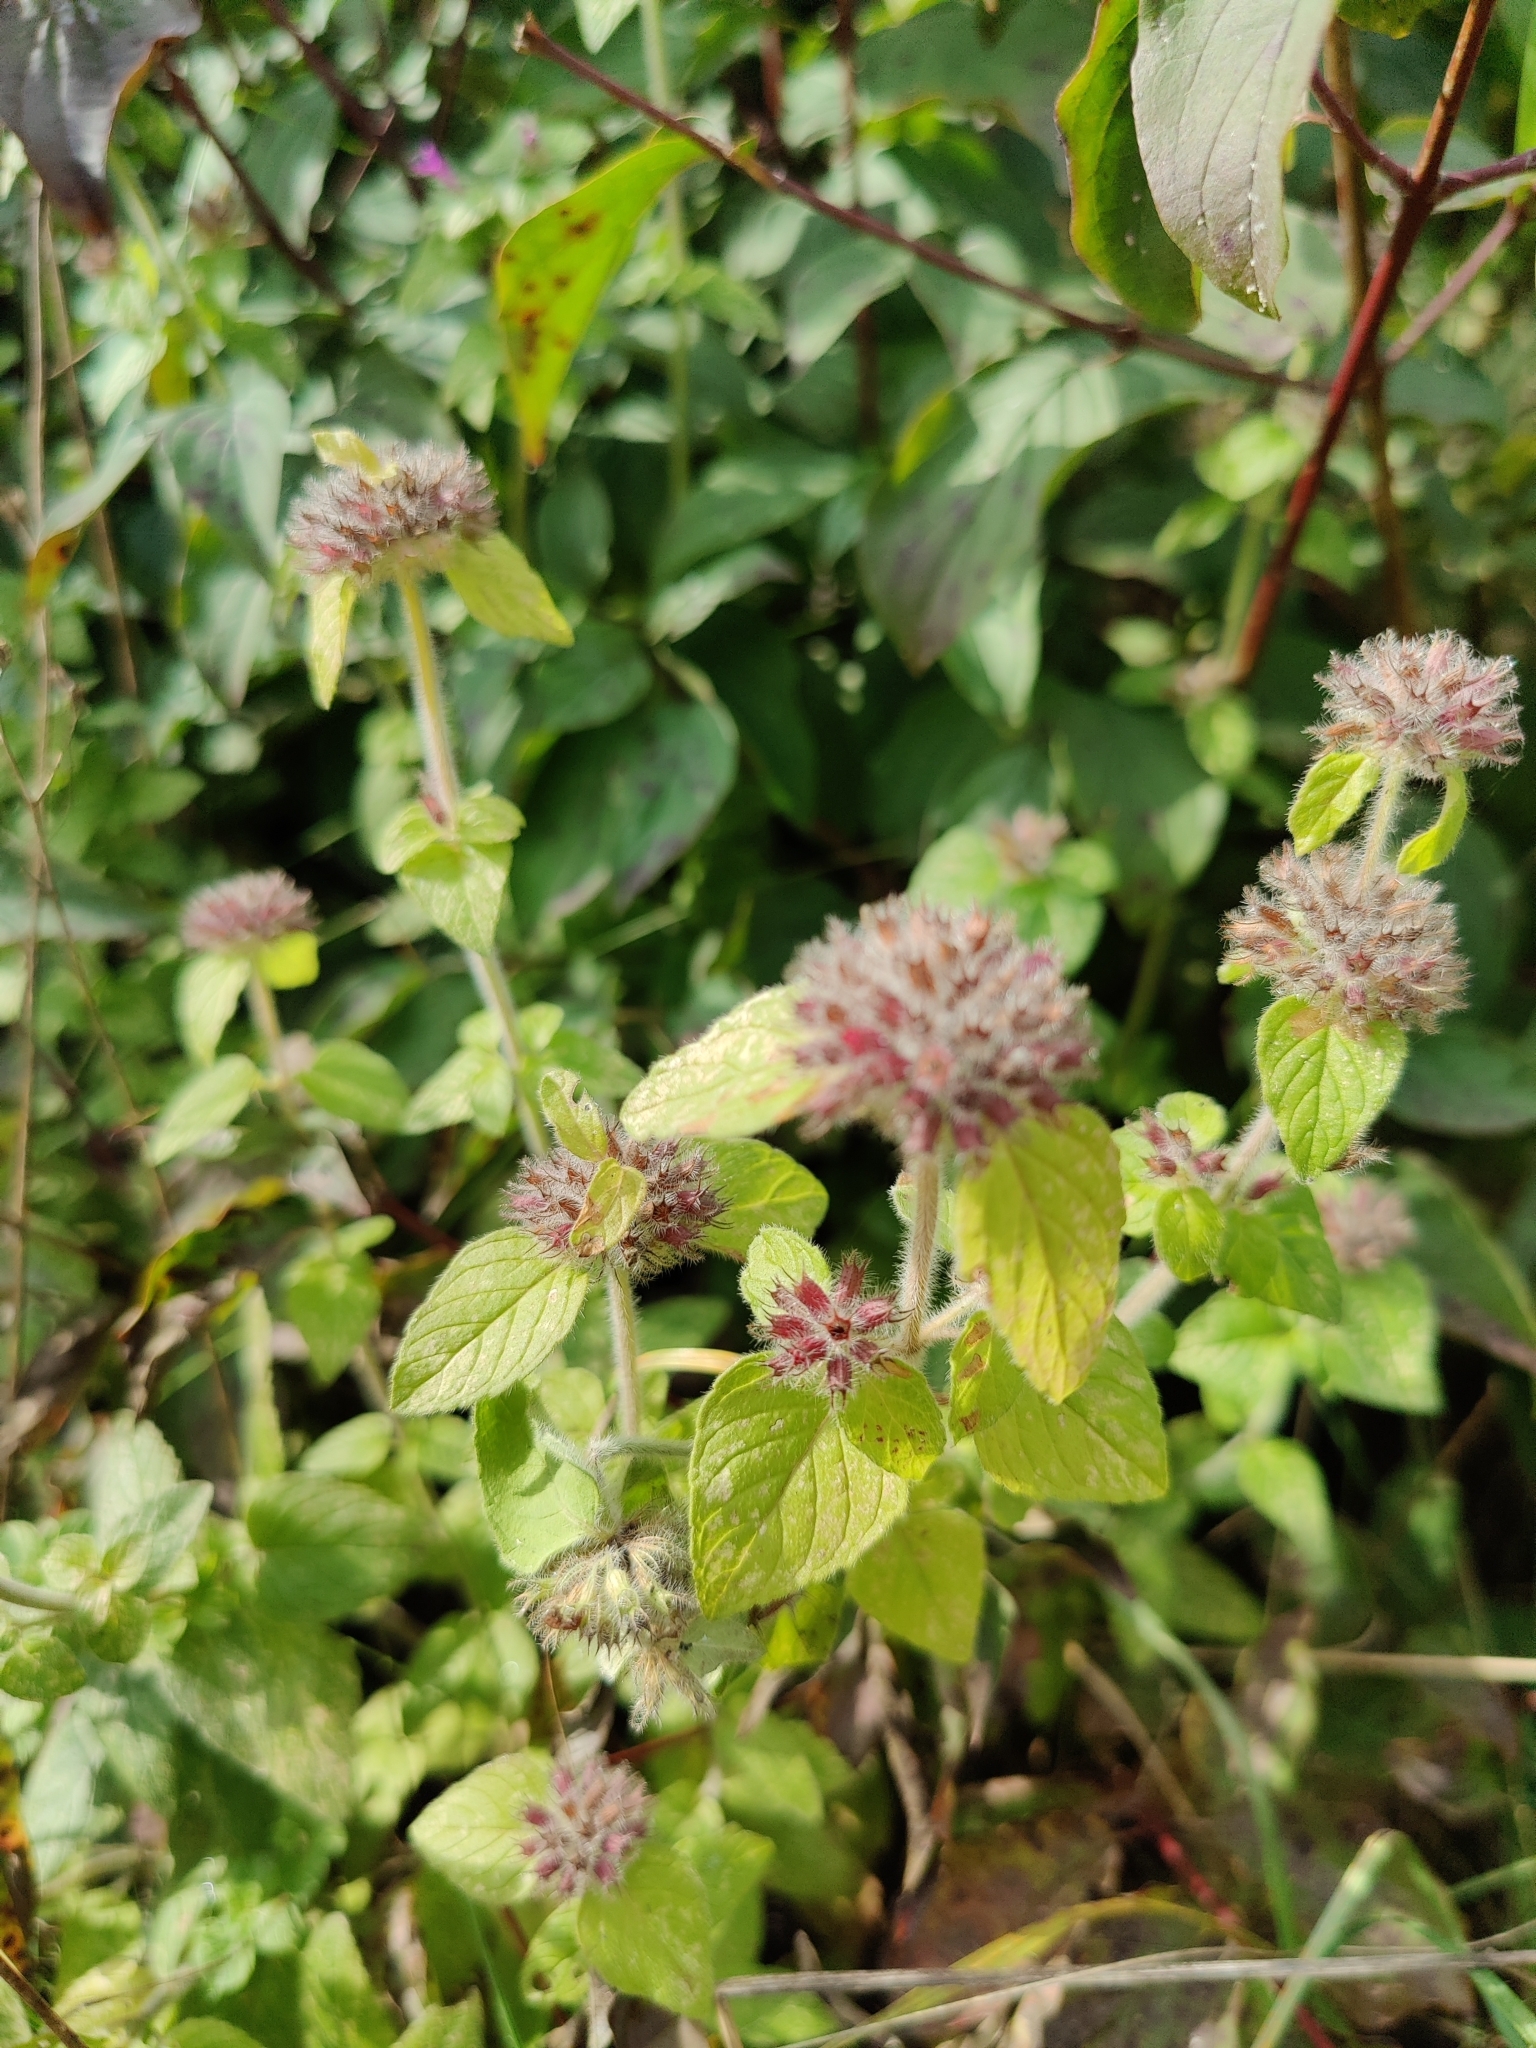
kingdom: Plantae
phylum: Tracheophyta
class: Magnoliopsida
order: Lamiales
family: Lamiaceae
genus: Clinopodium
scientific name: Clinopodium vulgare
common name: Wild basil
